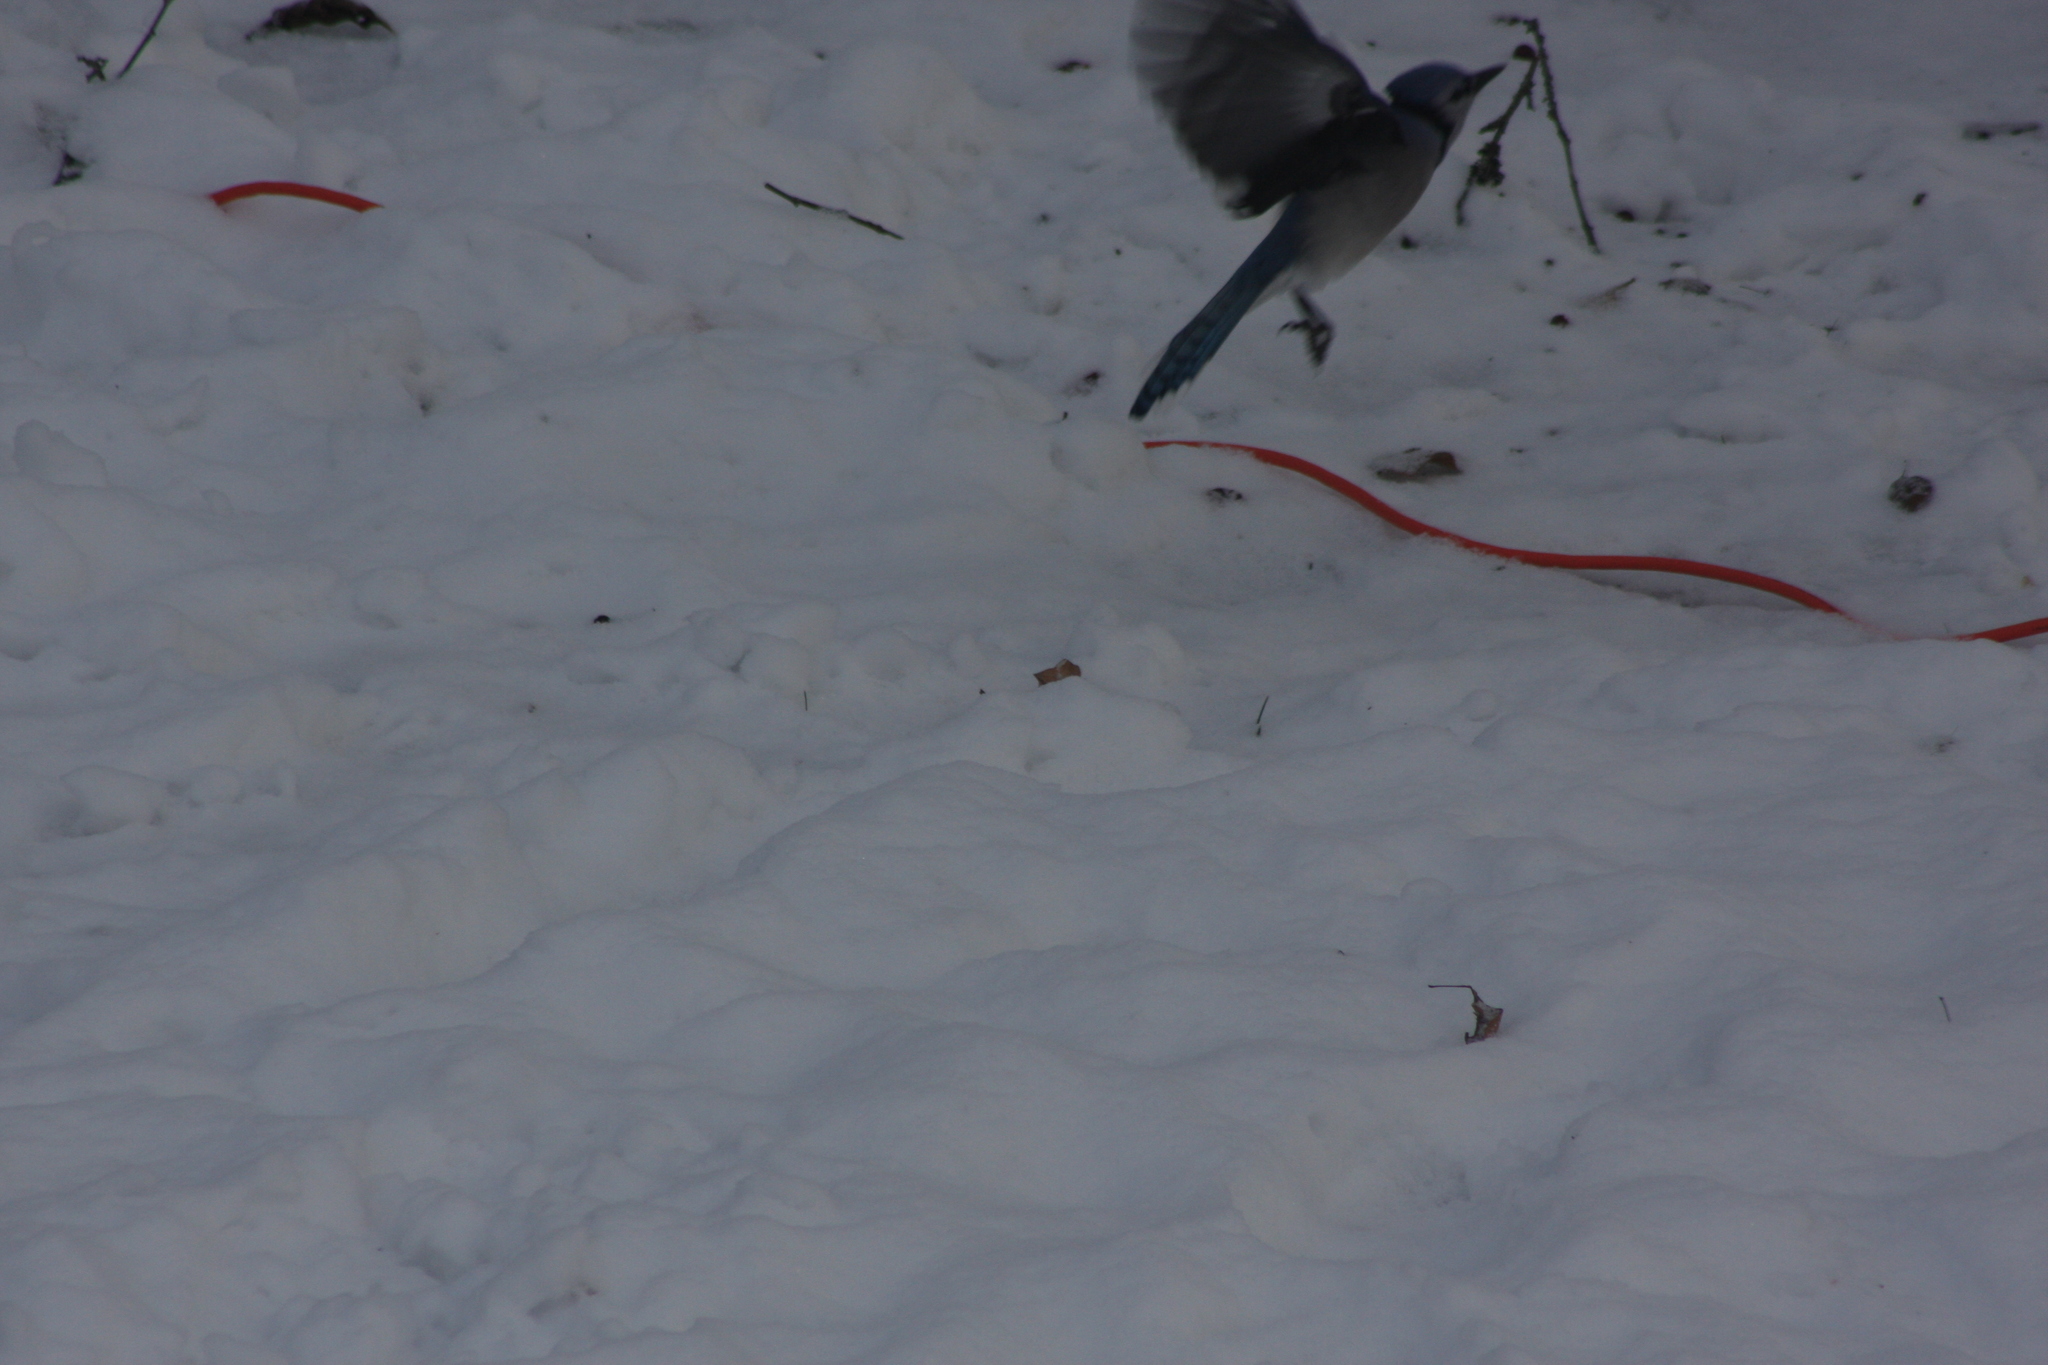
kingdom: Animalia
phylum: Chordata
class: Aves
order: Passeriformes
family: Corvidae
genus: Cyanocitta
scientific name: Cyanocitta cristata
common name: Blue jay
